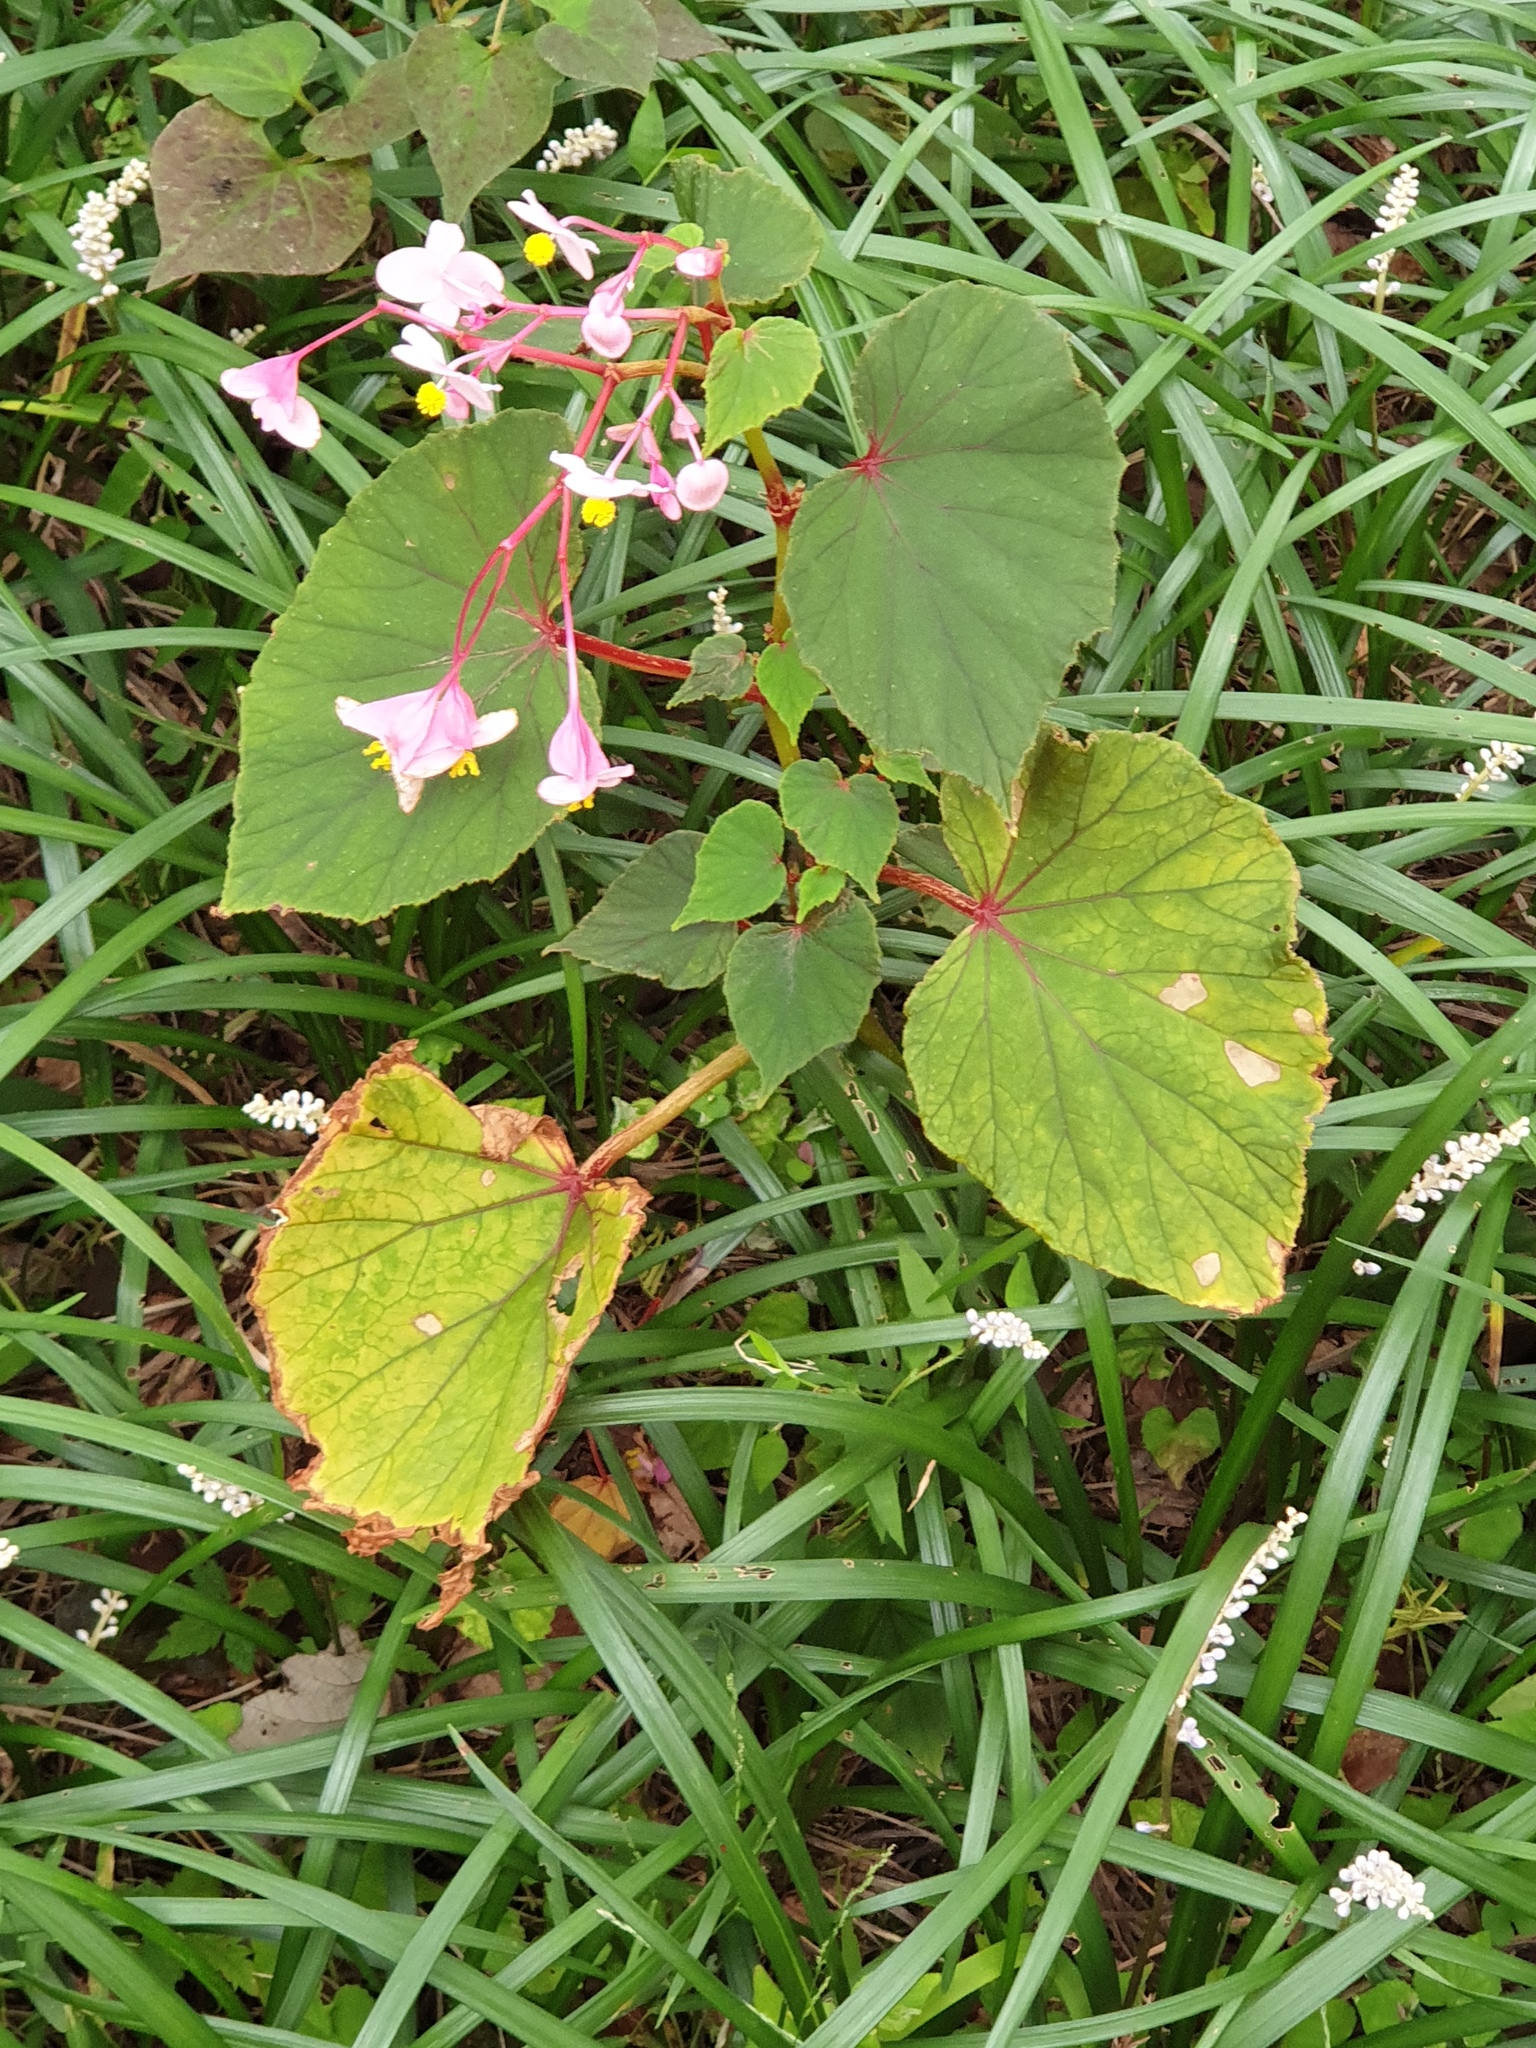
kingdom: Plantae
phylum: Tracheophyta
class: Magnoliopsida
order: Cucurbitales
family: Begoniaceae
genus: Begonia
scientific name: Begonia grandis
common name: Hardy begonia
